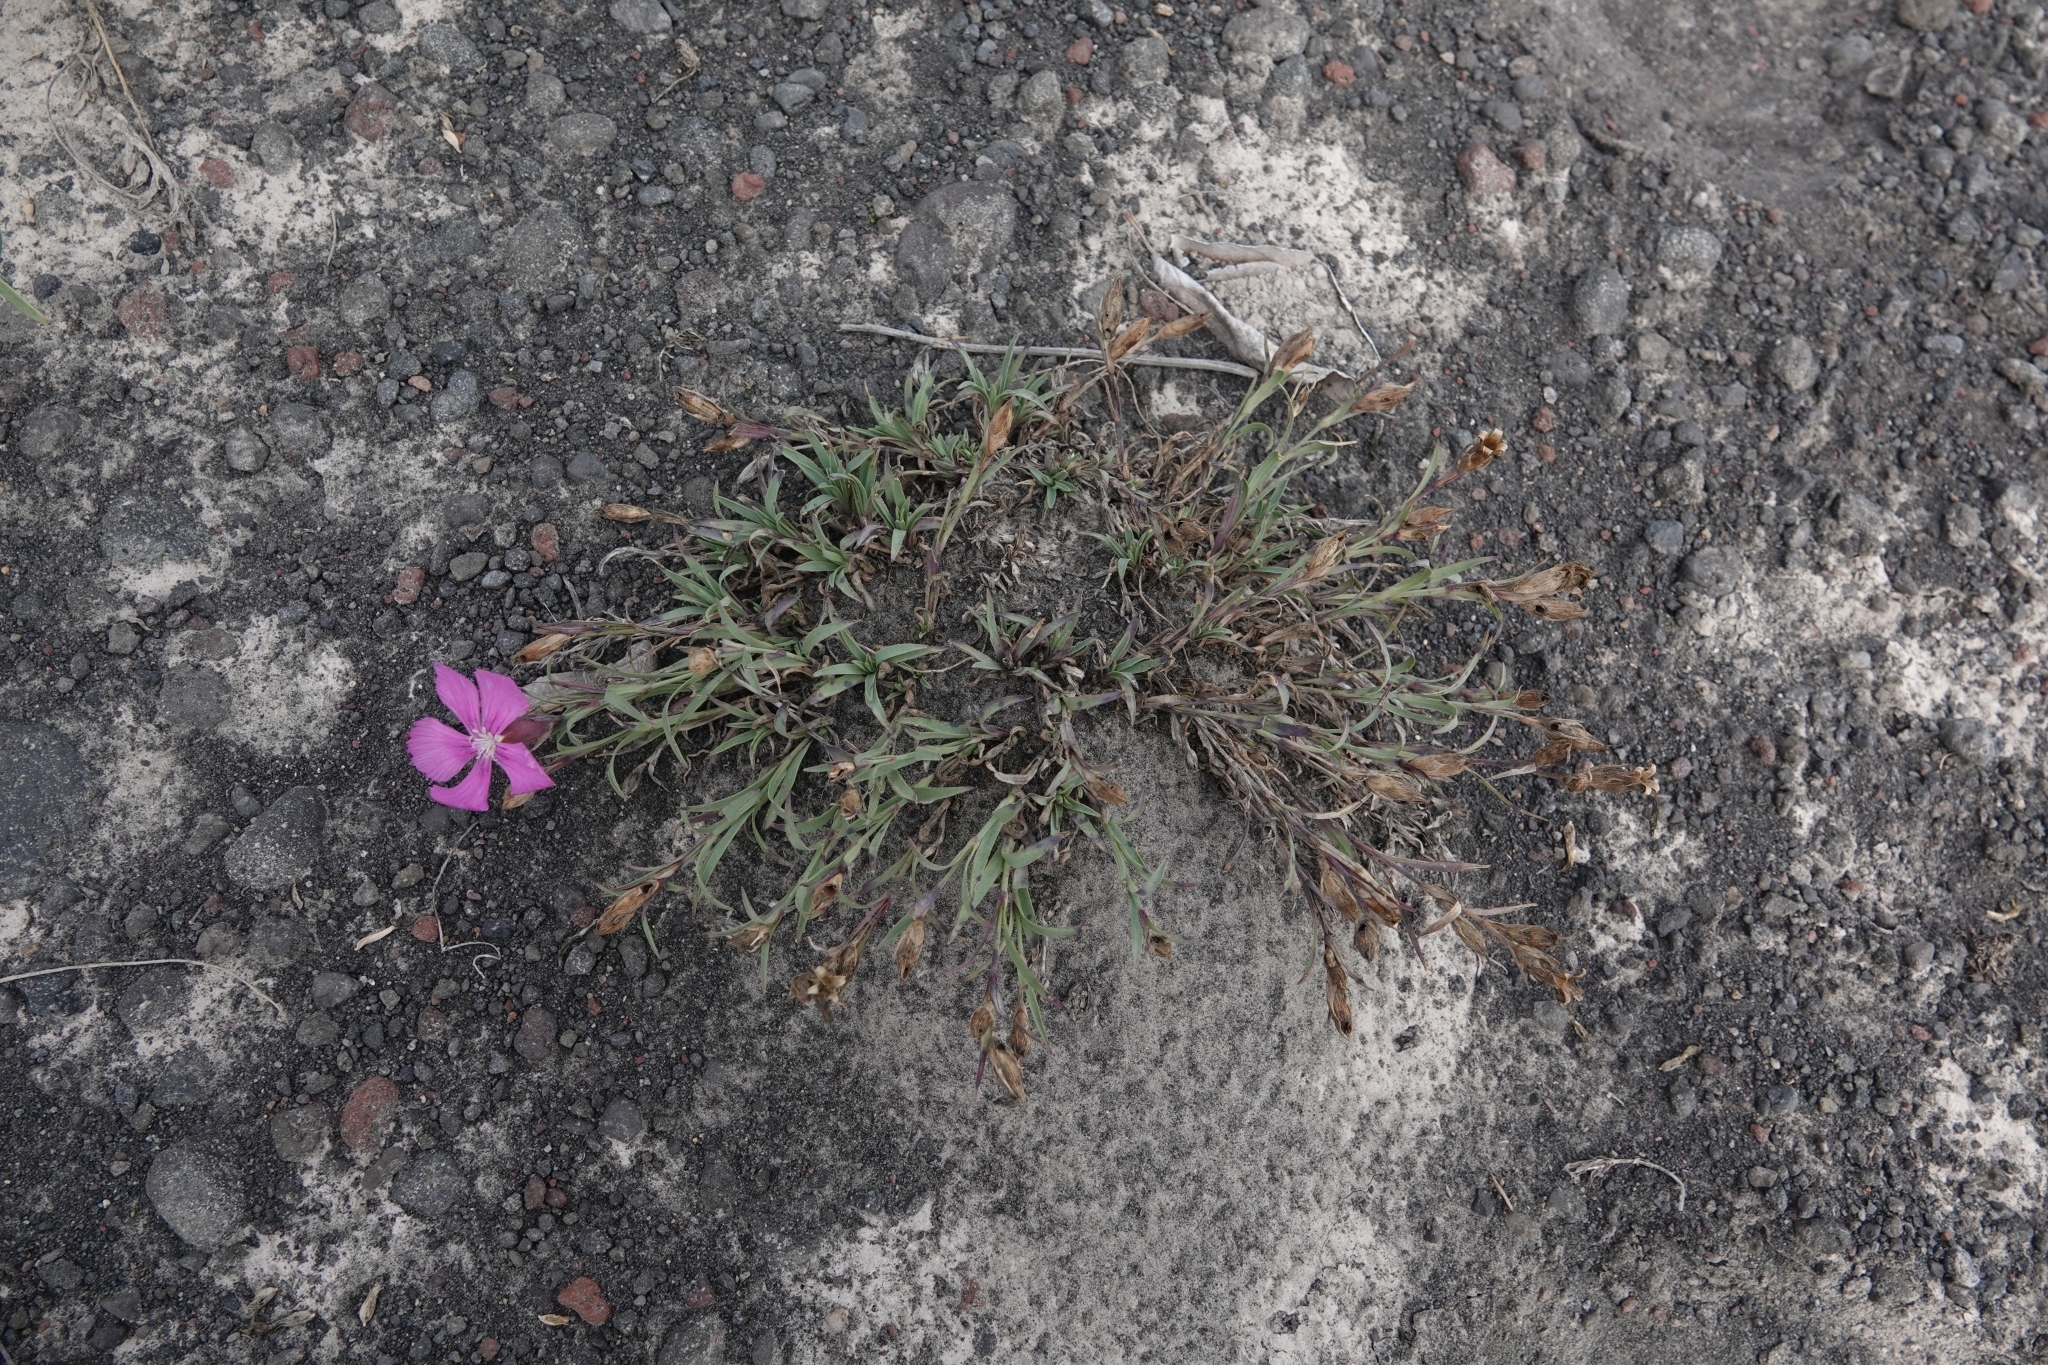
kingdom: Plantae
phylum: Tracheophyta
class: Magnoliopsida
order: Caryophyllales
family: Caryophyllaceae
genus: Dianthus
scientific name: Dianthus repens
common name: Northern pink
